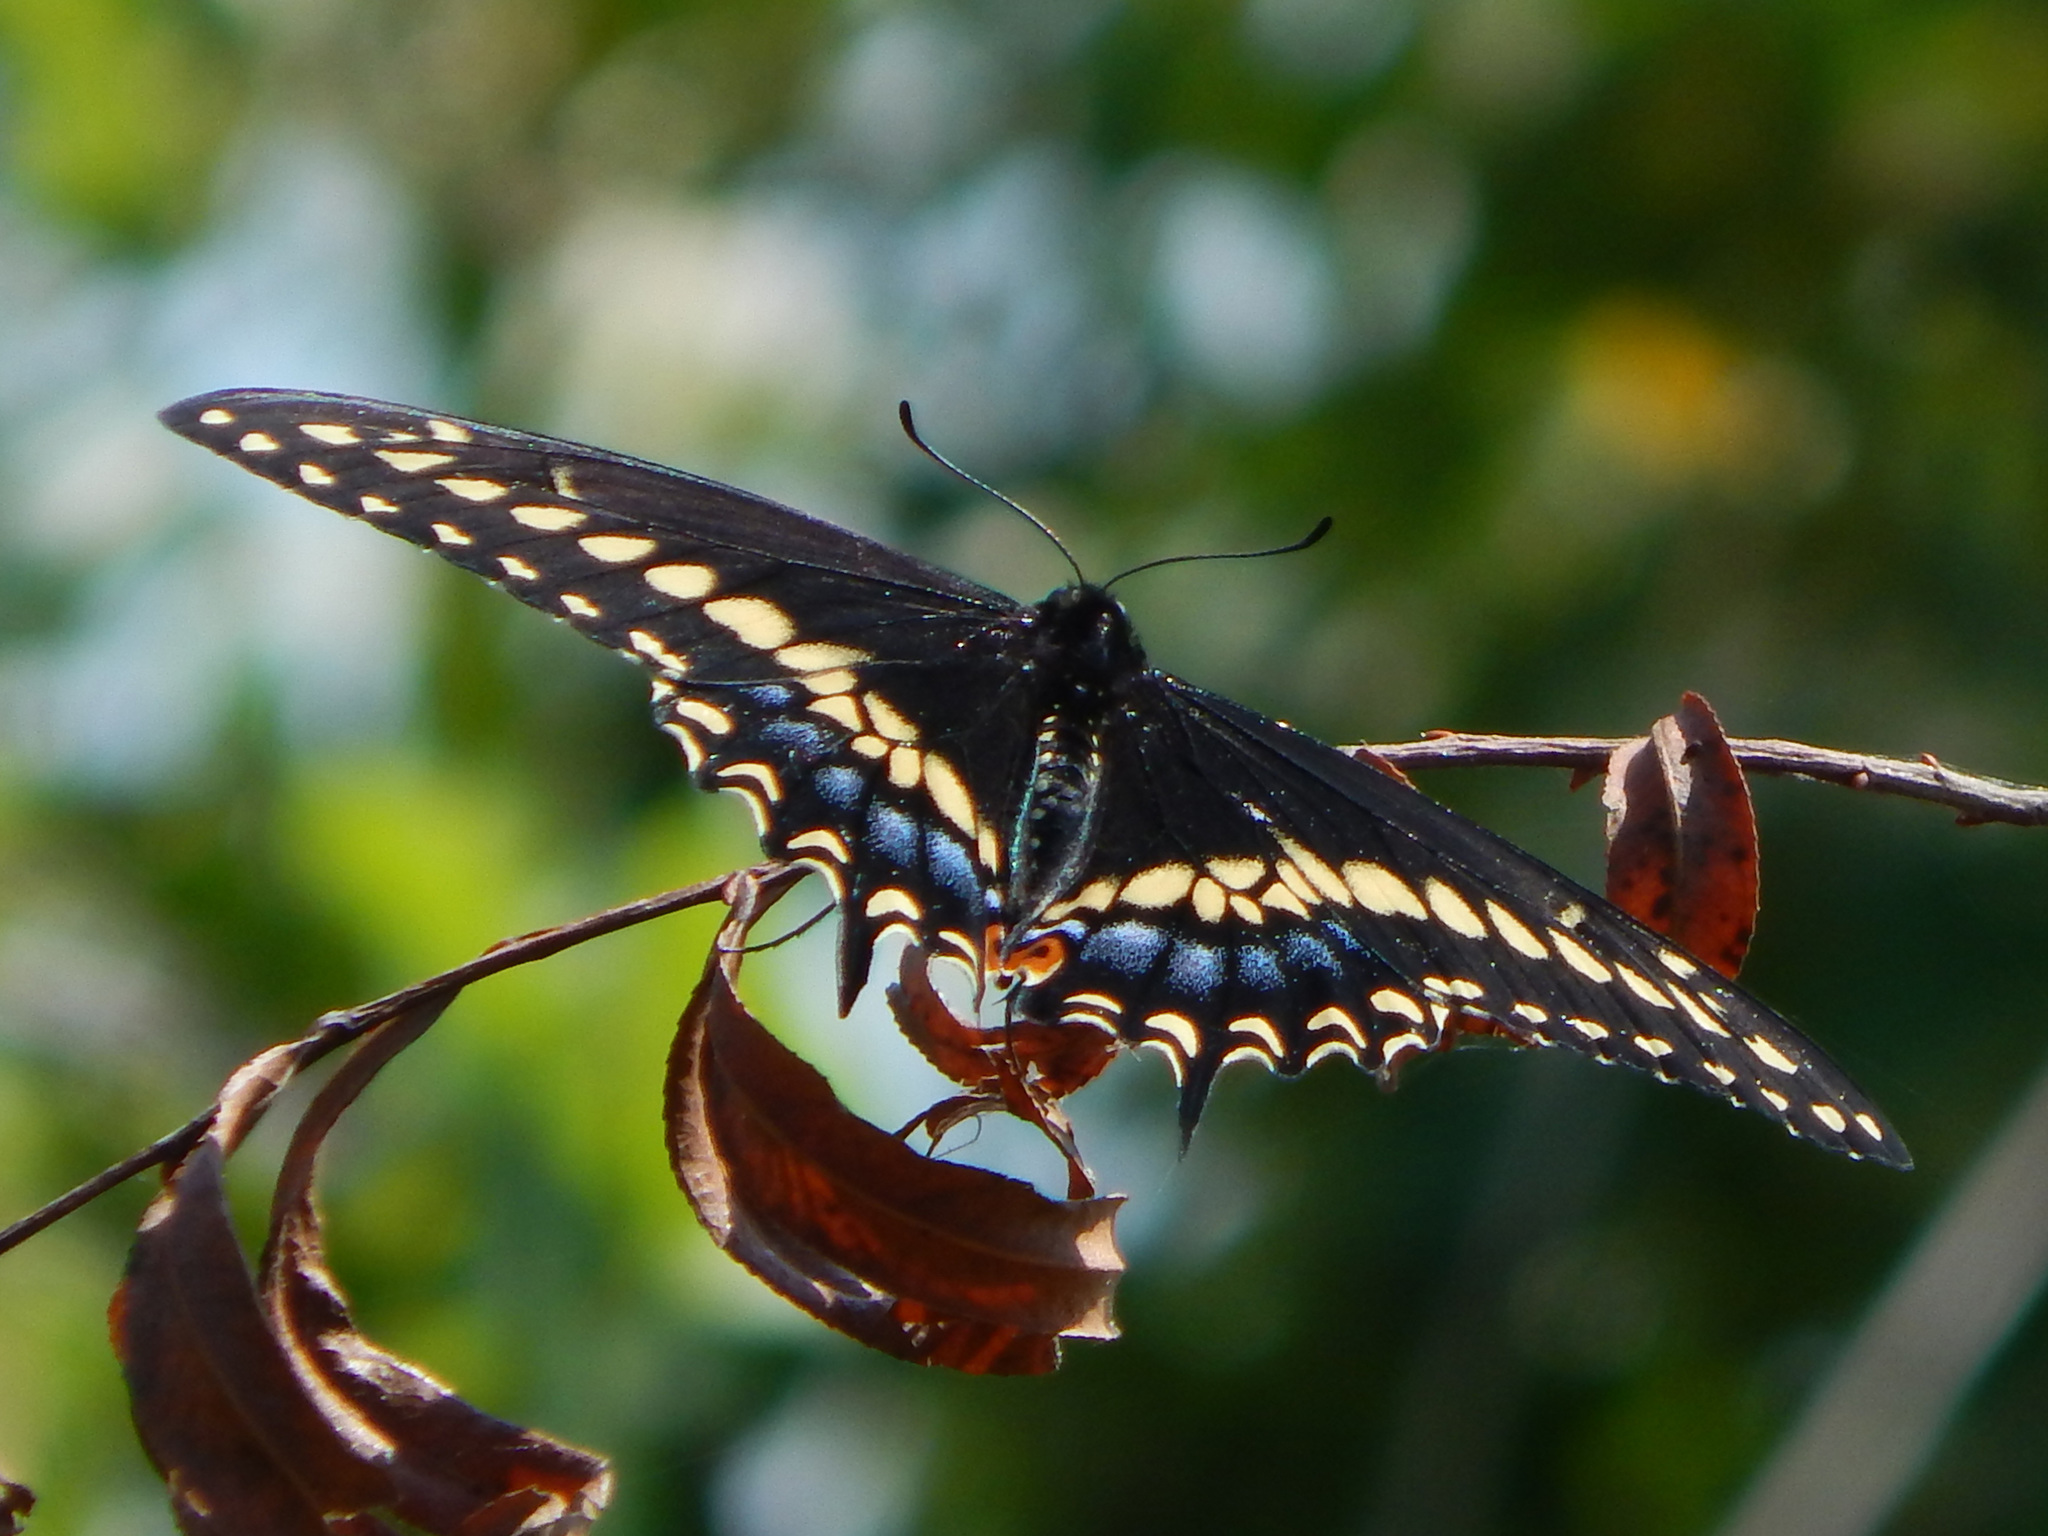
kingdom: Animalia
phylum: Arthropoda
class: Insecta
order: Lepidoptera
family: Papilionidae
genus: Papilio
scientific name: Papilio polyxenes
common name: Black swallowtail
